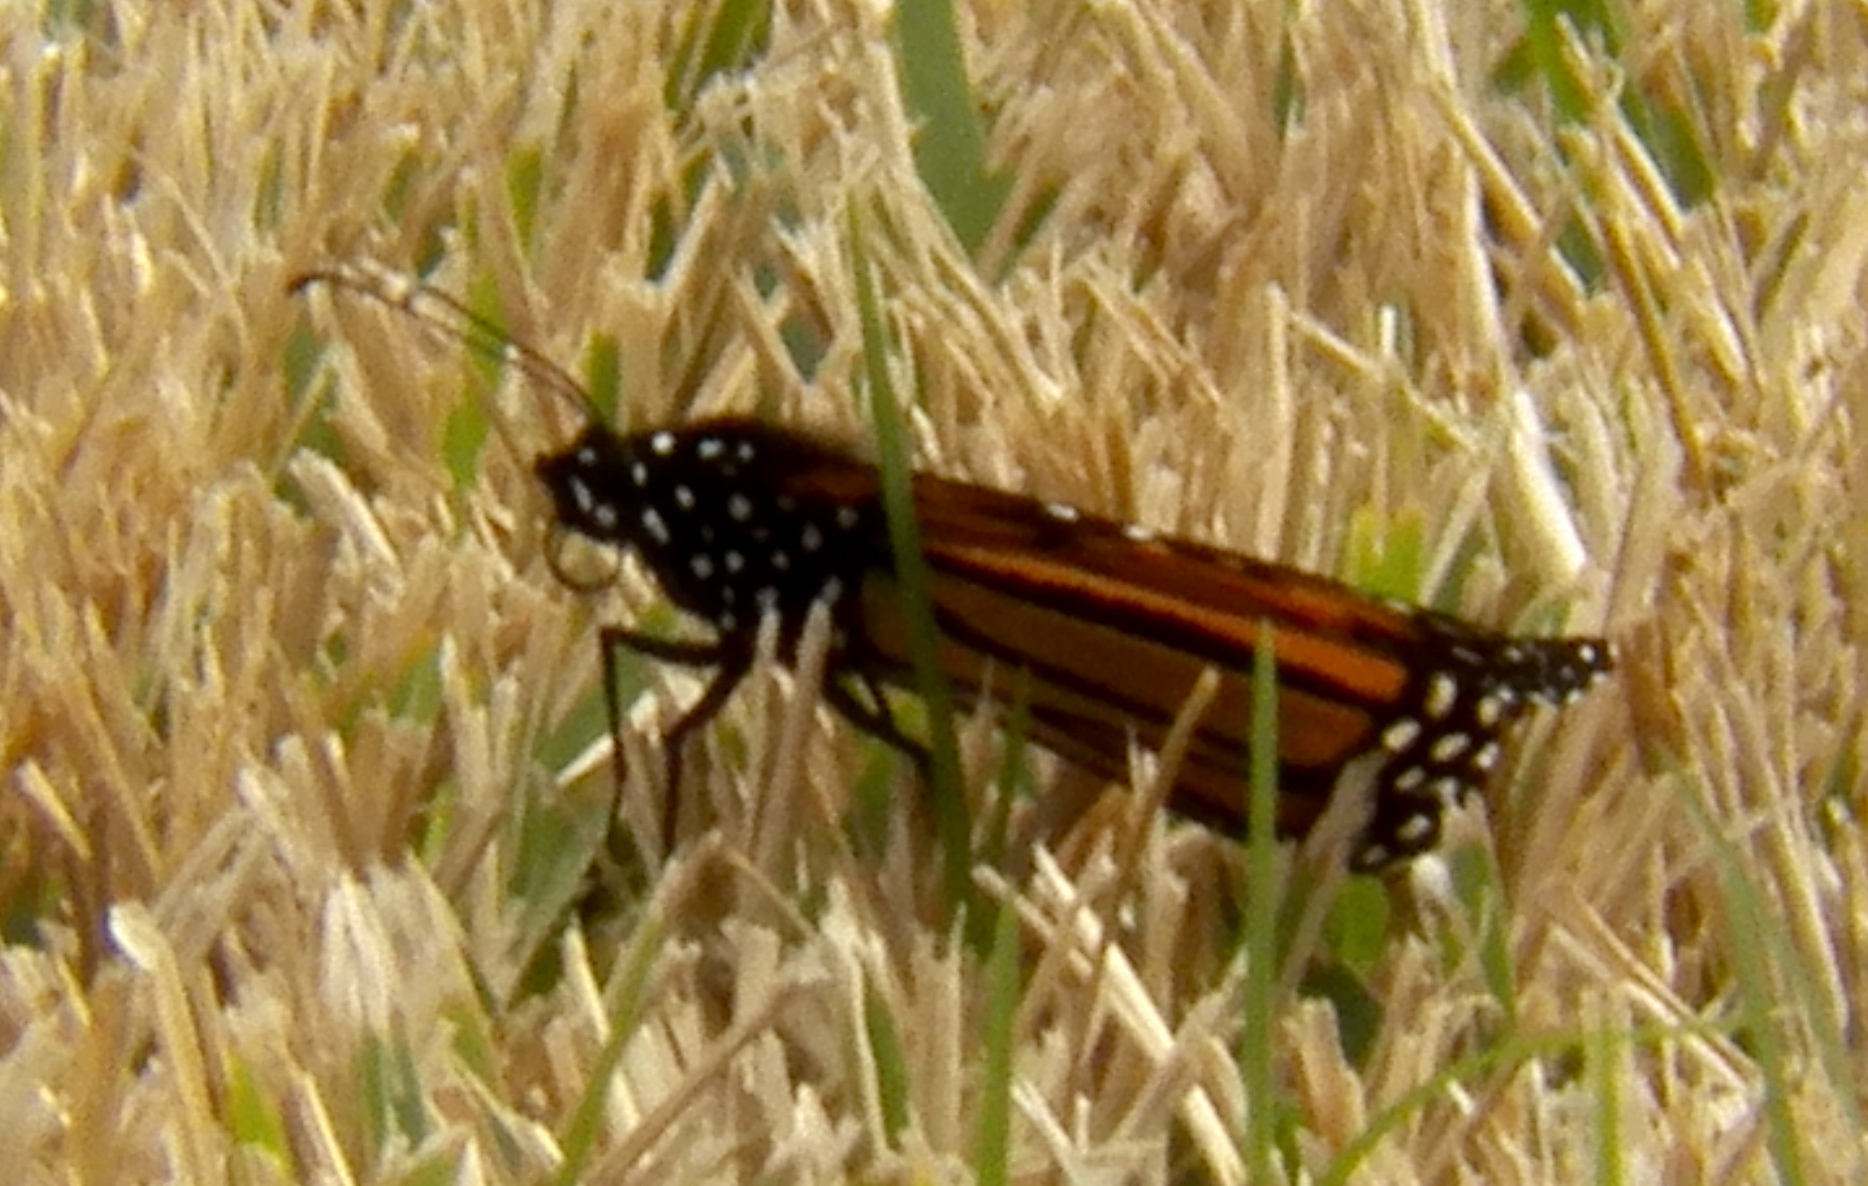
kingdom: Animalia
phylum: Arthropoda
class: Insecta
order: Lepidoptera
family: Nymphalidae
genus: Danaus
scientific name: Danaus plexippus
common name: Monarch
